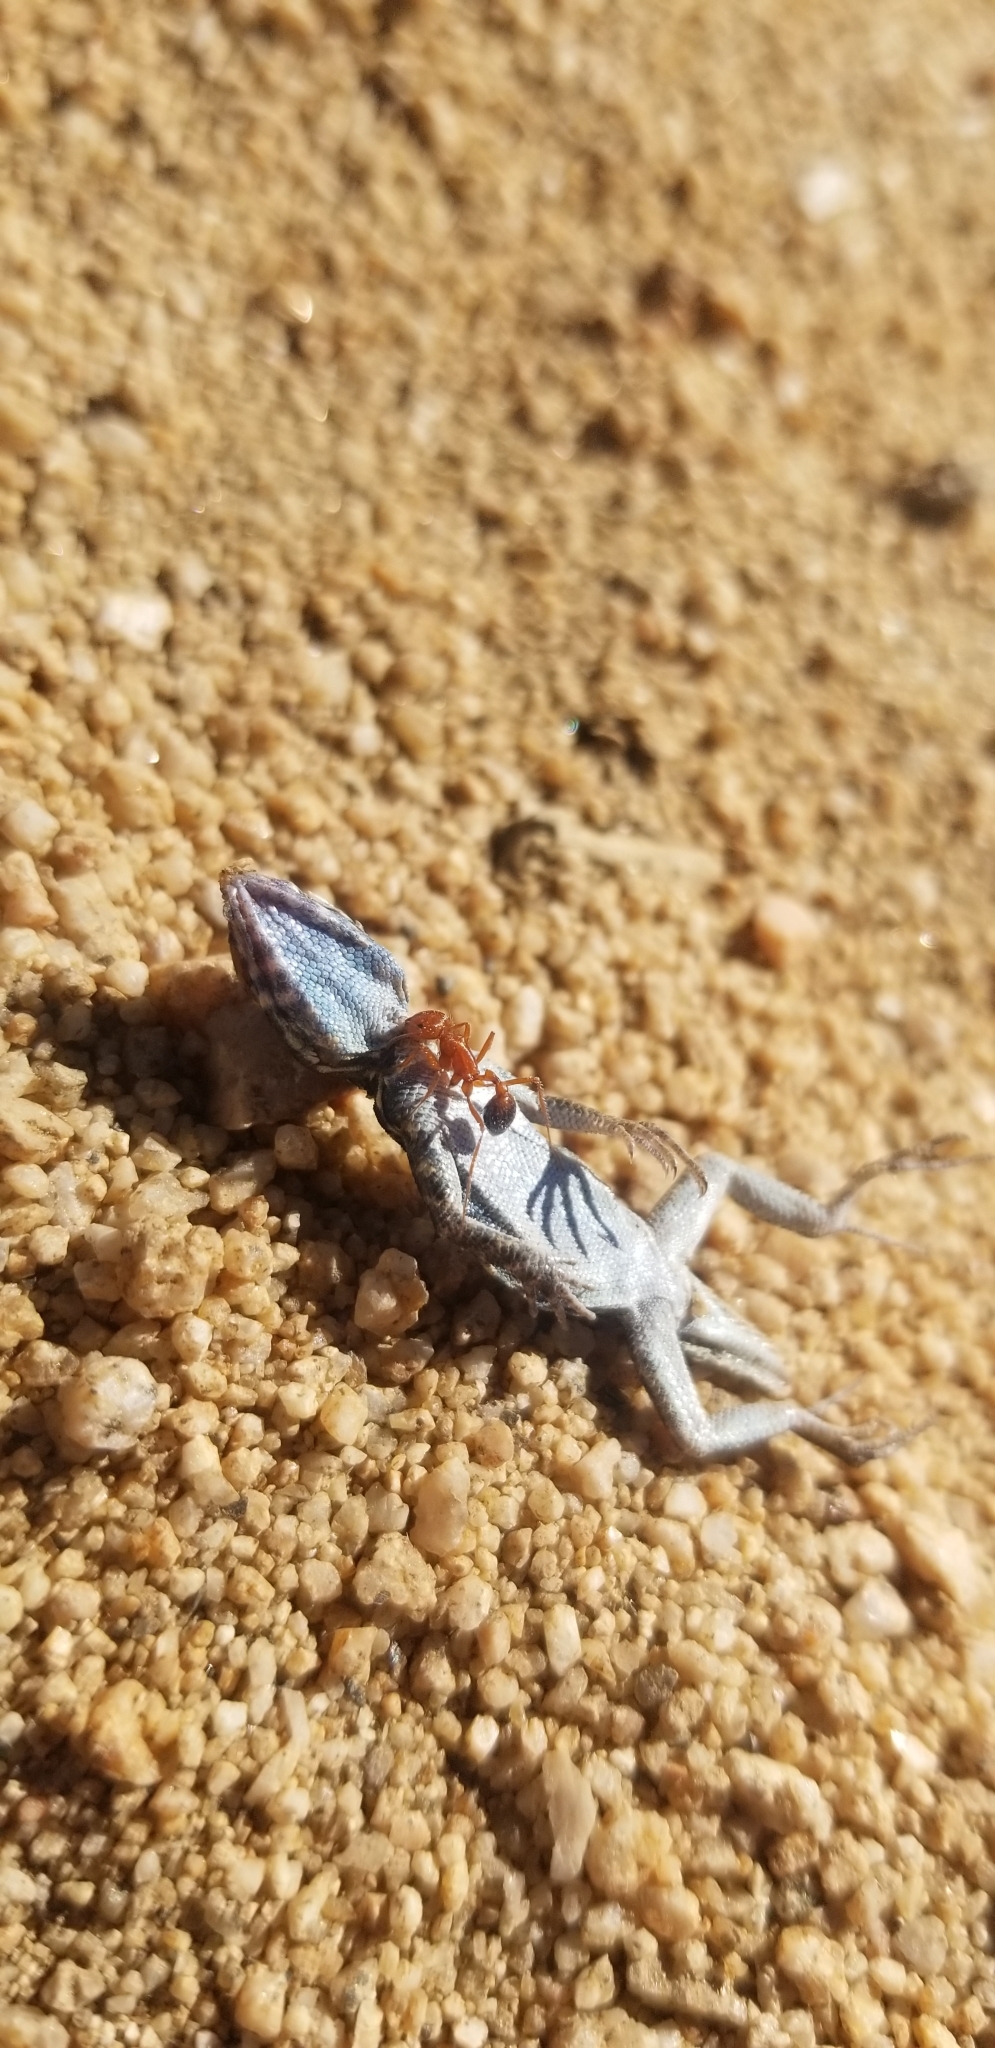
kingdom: Animalia
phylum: Chordata
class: Squamata
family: Phrynosomatidae
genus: Uta
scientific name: Uta stansburiana
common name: Side-blotched lizard
